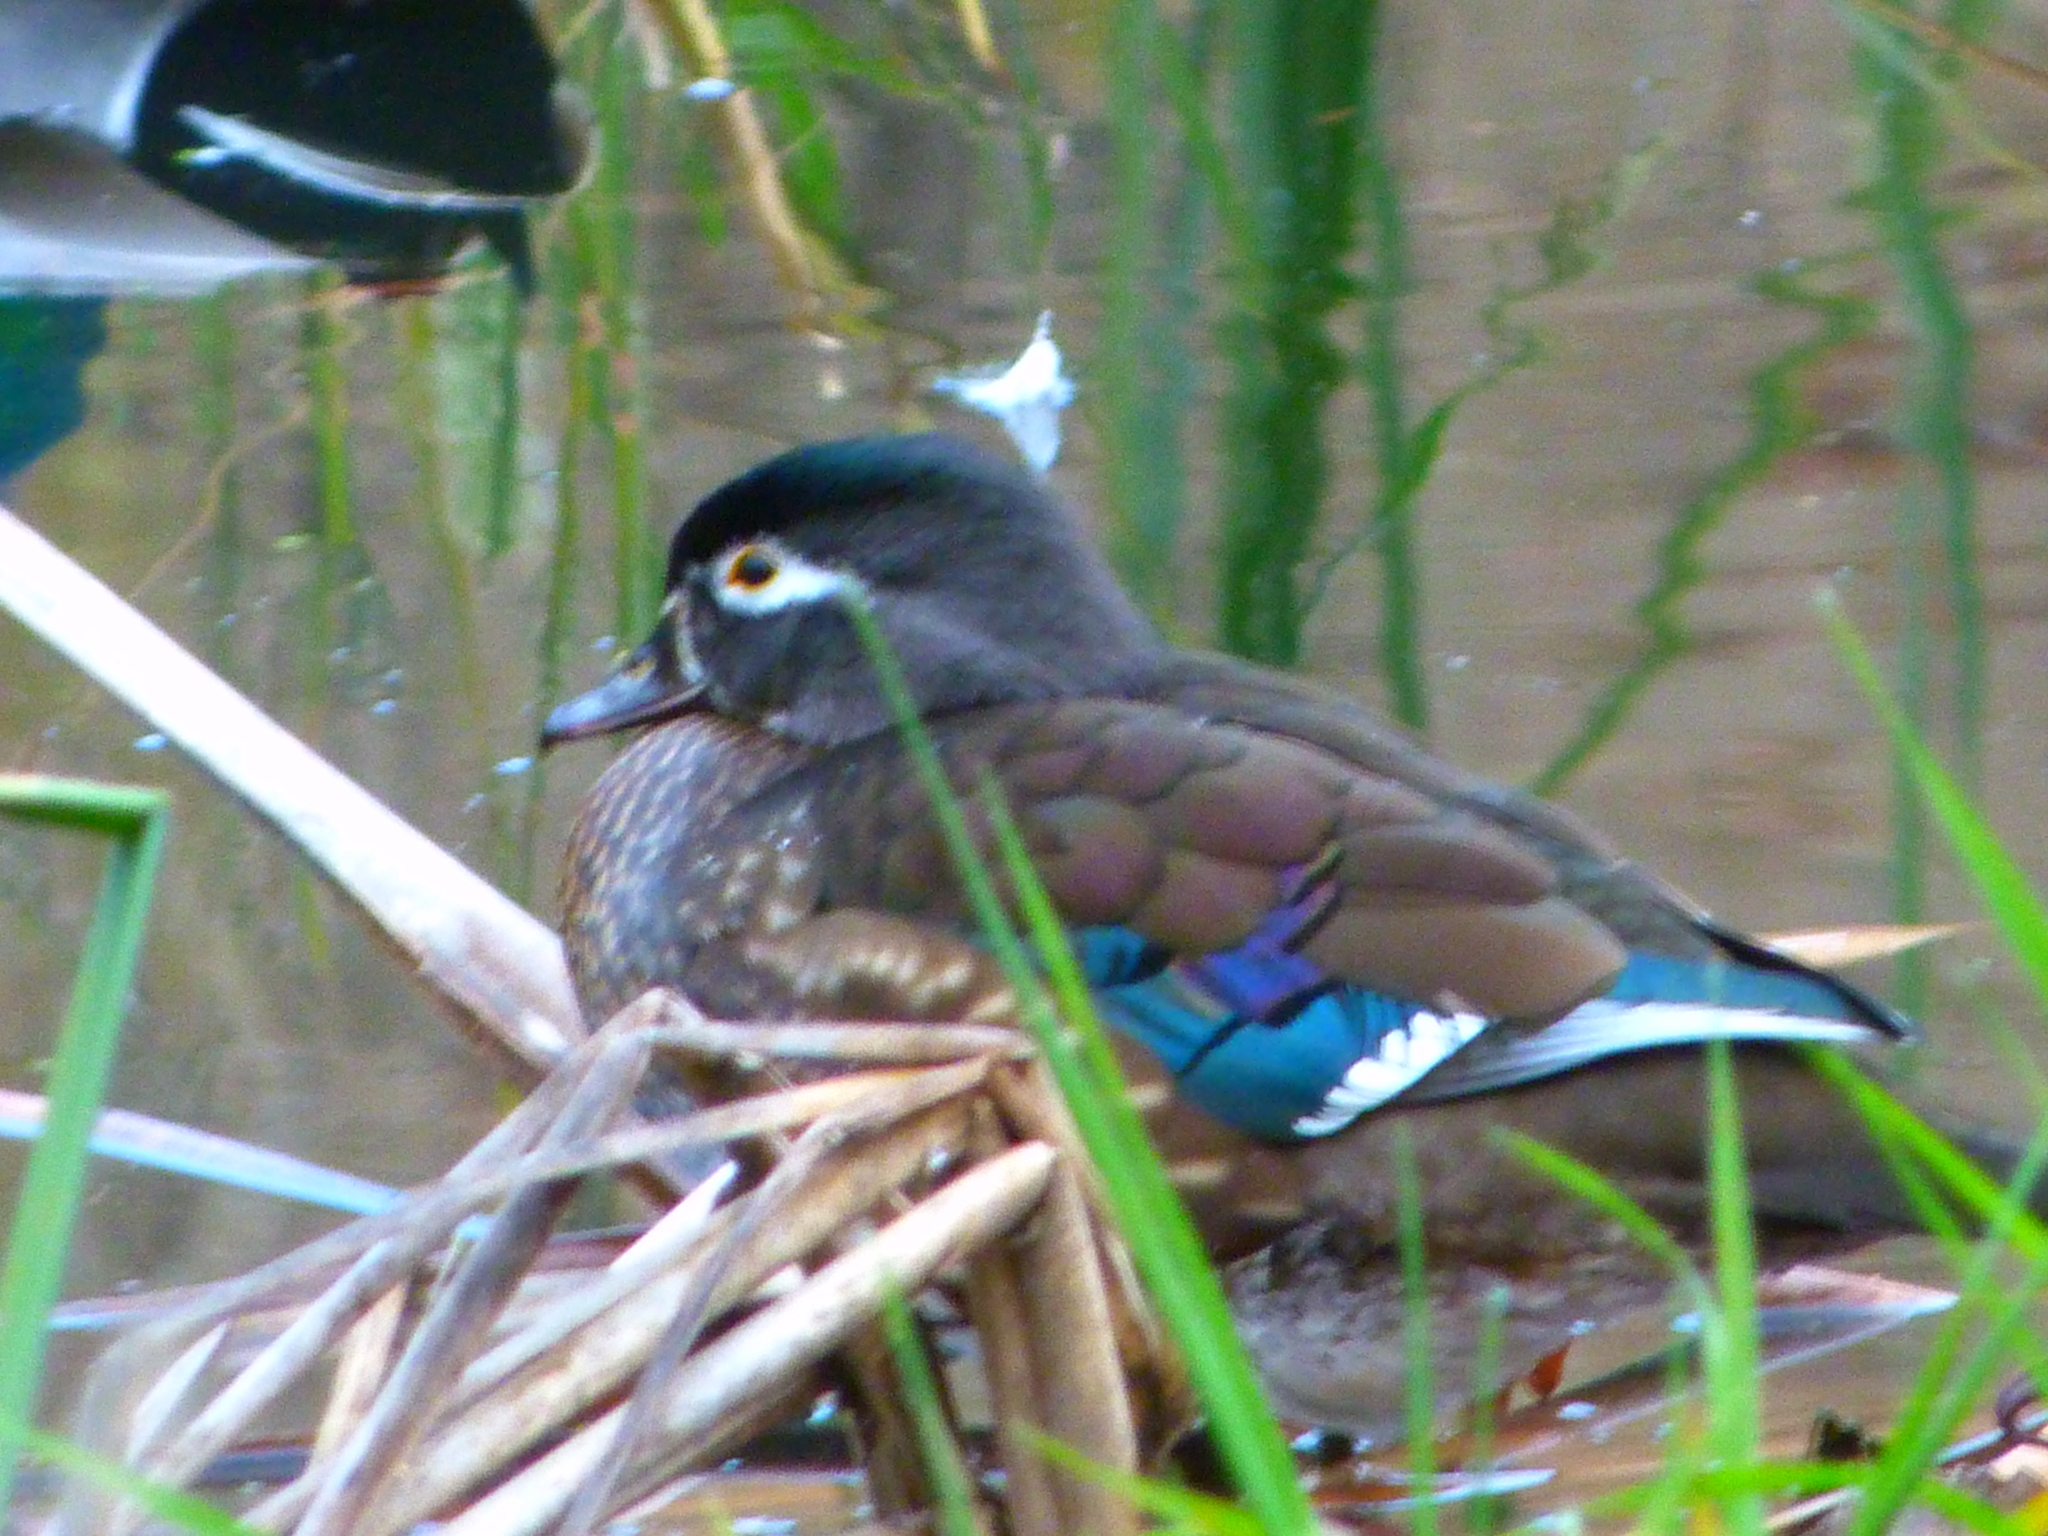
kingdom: Animalia
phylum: Chordata
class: Aves
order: Anseriformes
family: Anatidae
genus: Aix
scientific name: Aix sponsa
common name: Wood duck
